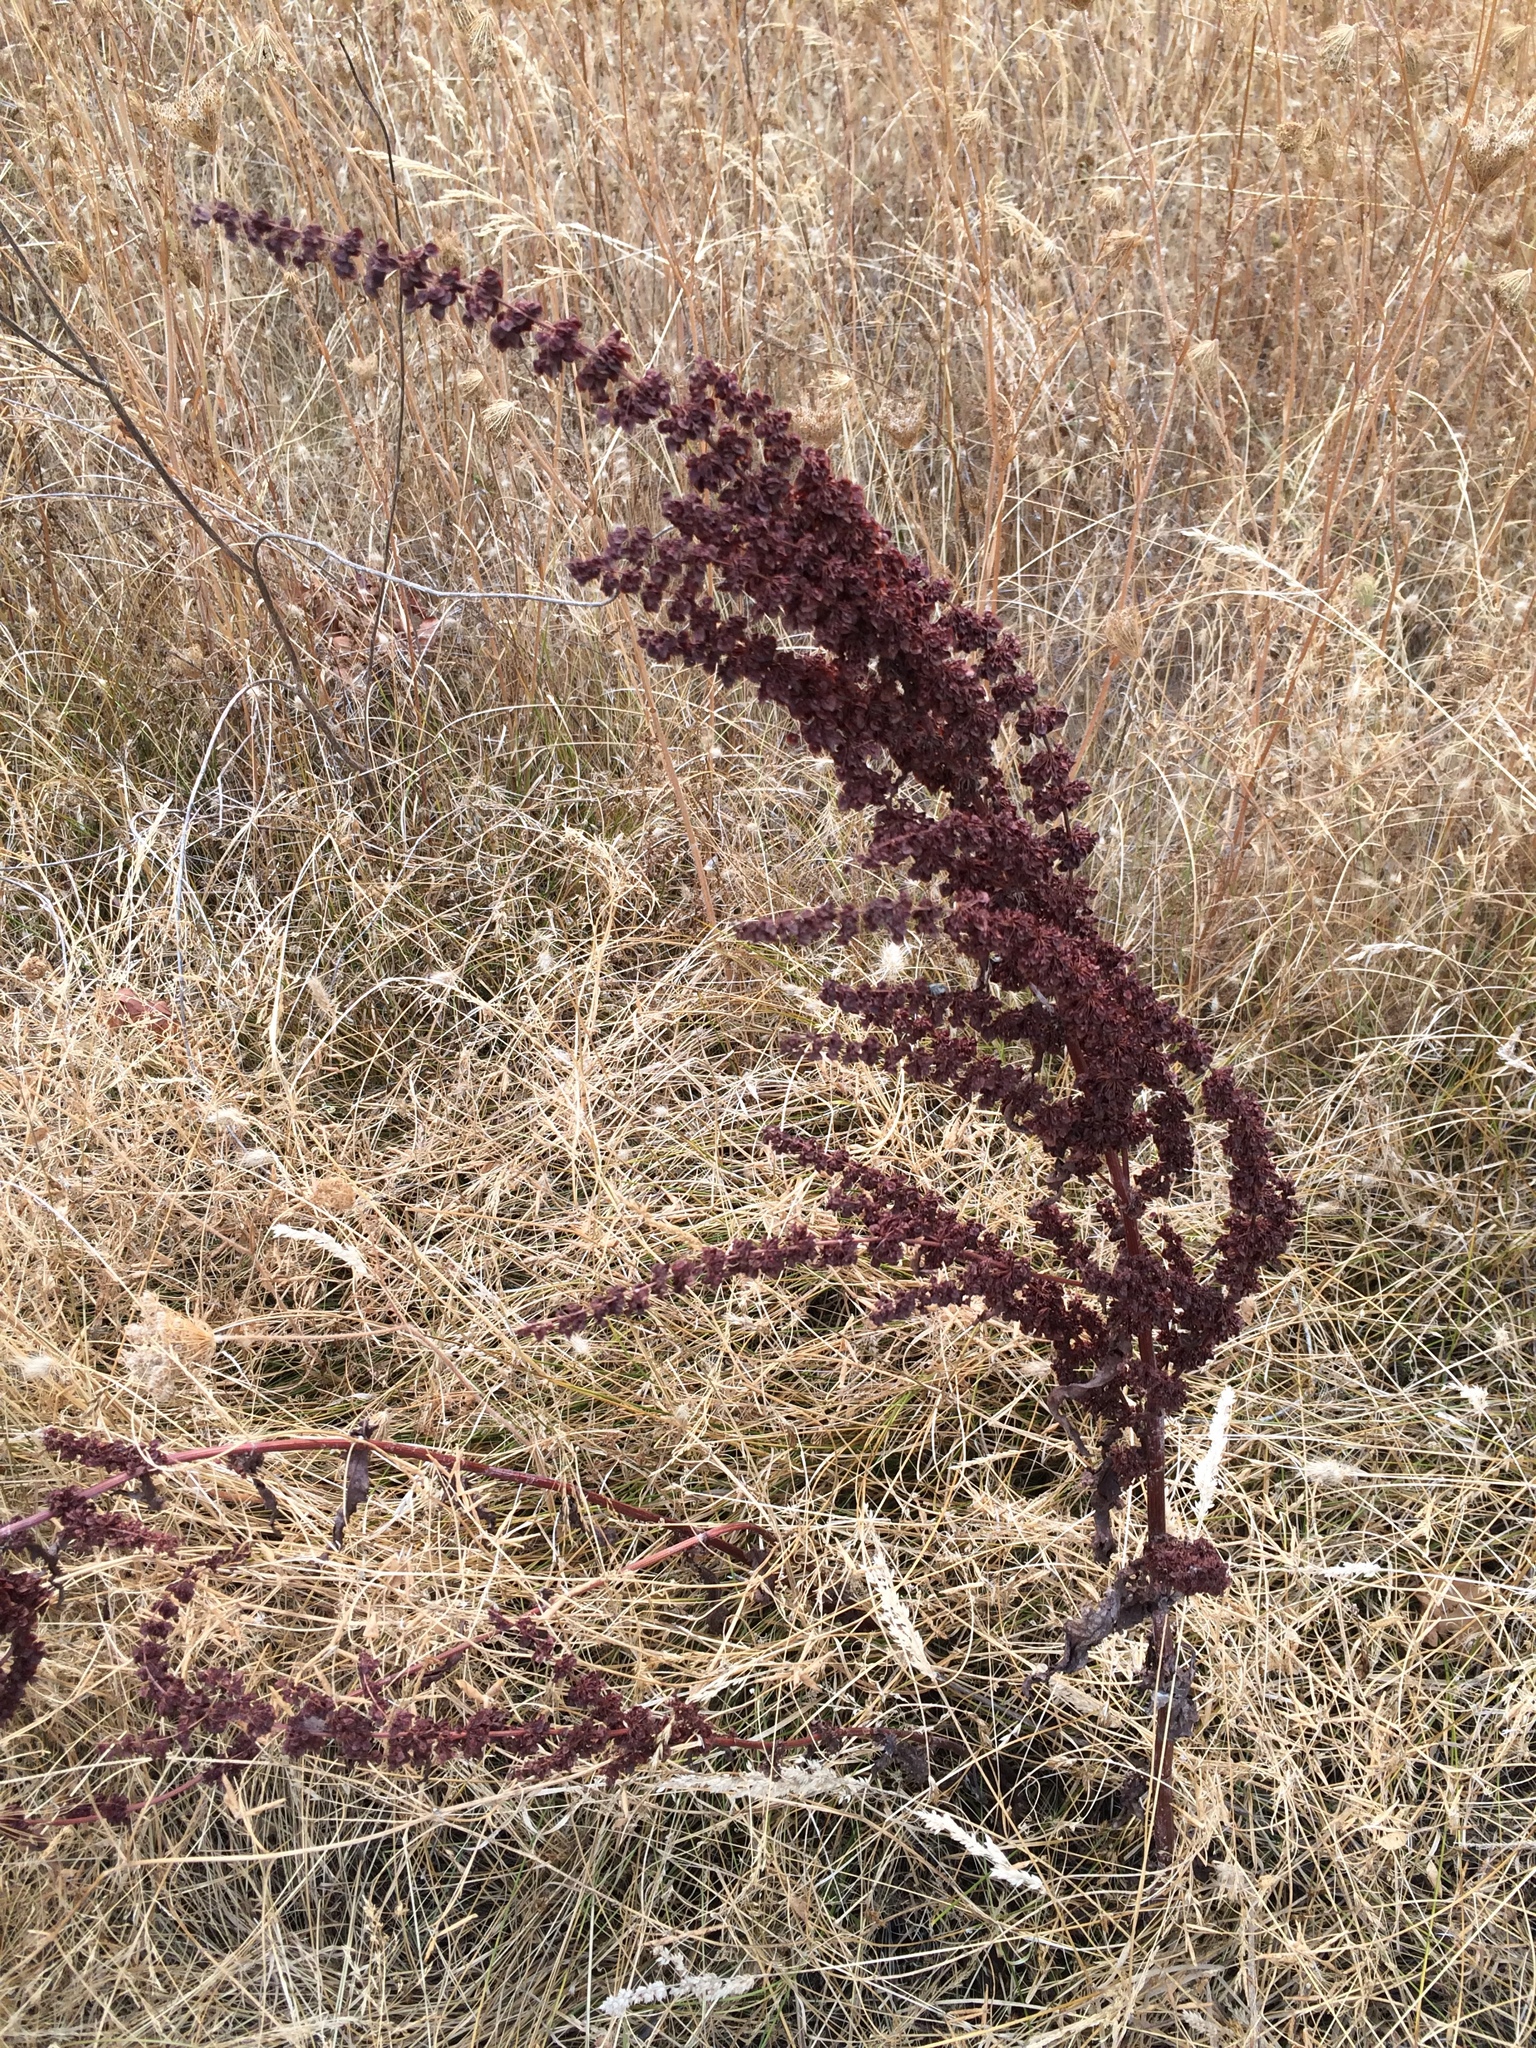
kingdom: Plantae
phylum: Tracheophyta
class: Magnoliopsida
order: Caryophyllales
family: Polygonaceae
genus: Rumex
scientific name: Rumex obtusifolius
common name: Bitter dock
